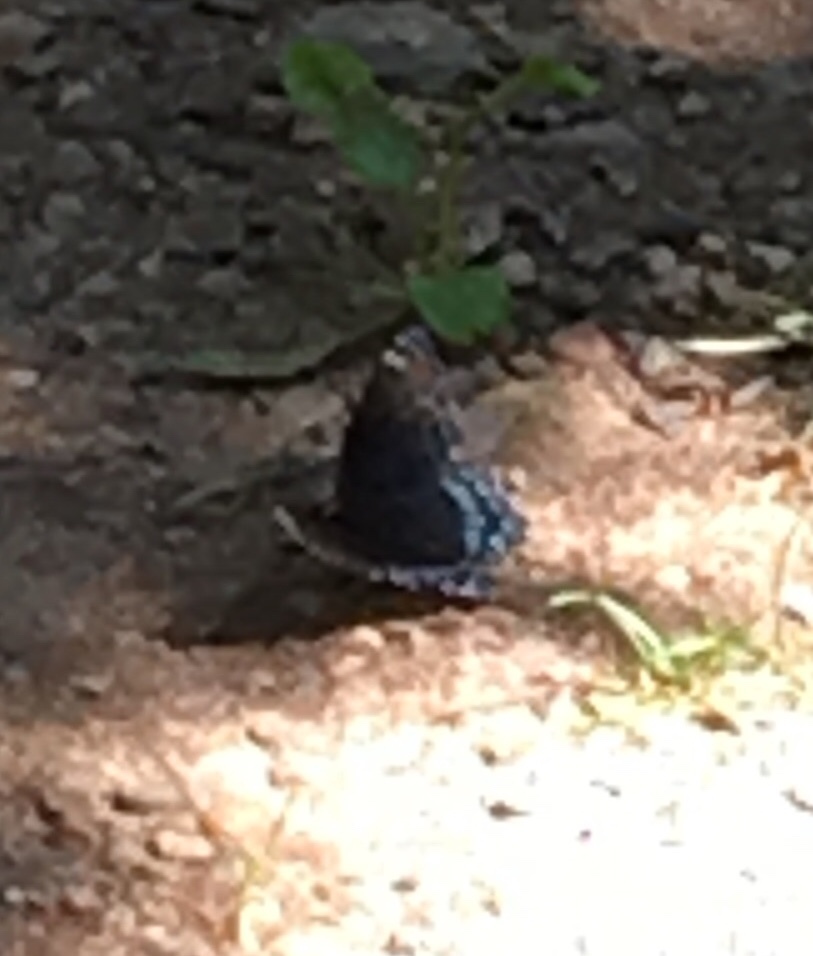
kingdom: Animalia
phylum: Arthropoda
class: Insecta
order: Lepidoptera
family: Nymphalidae
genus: Limenitis
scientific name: Limenitis astyanax
